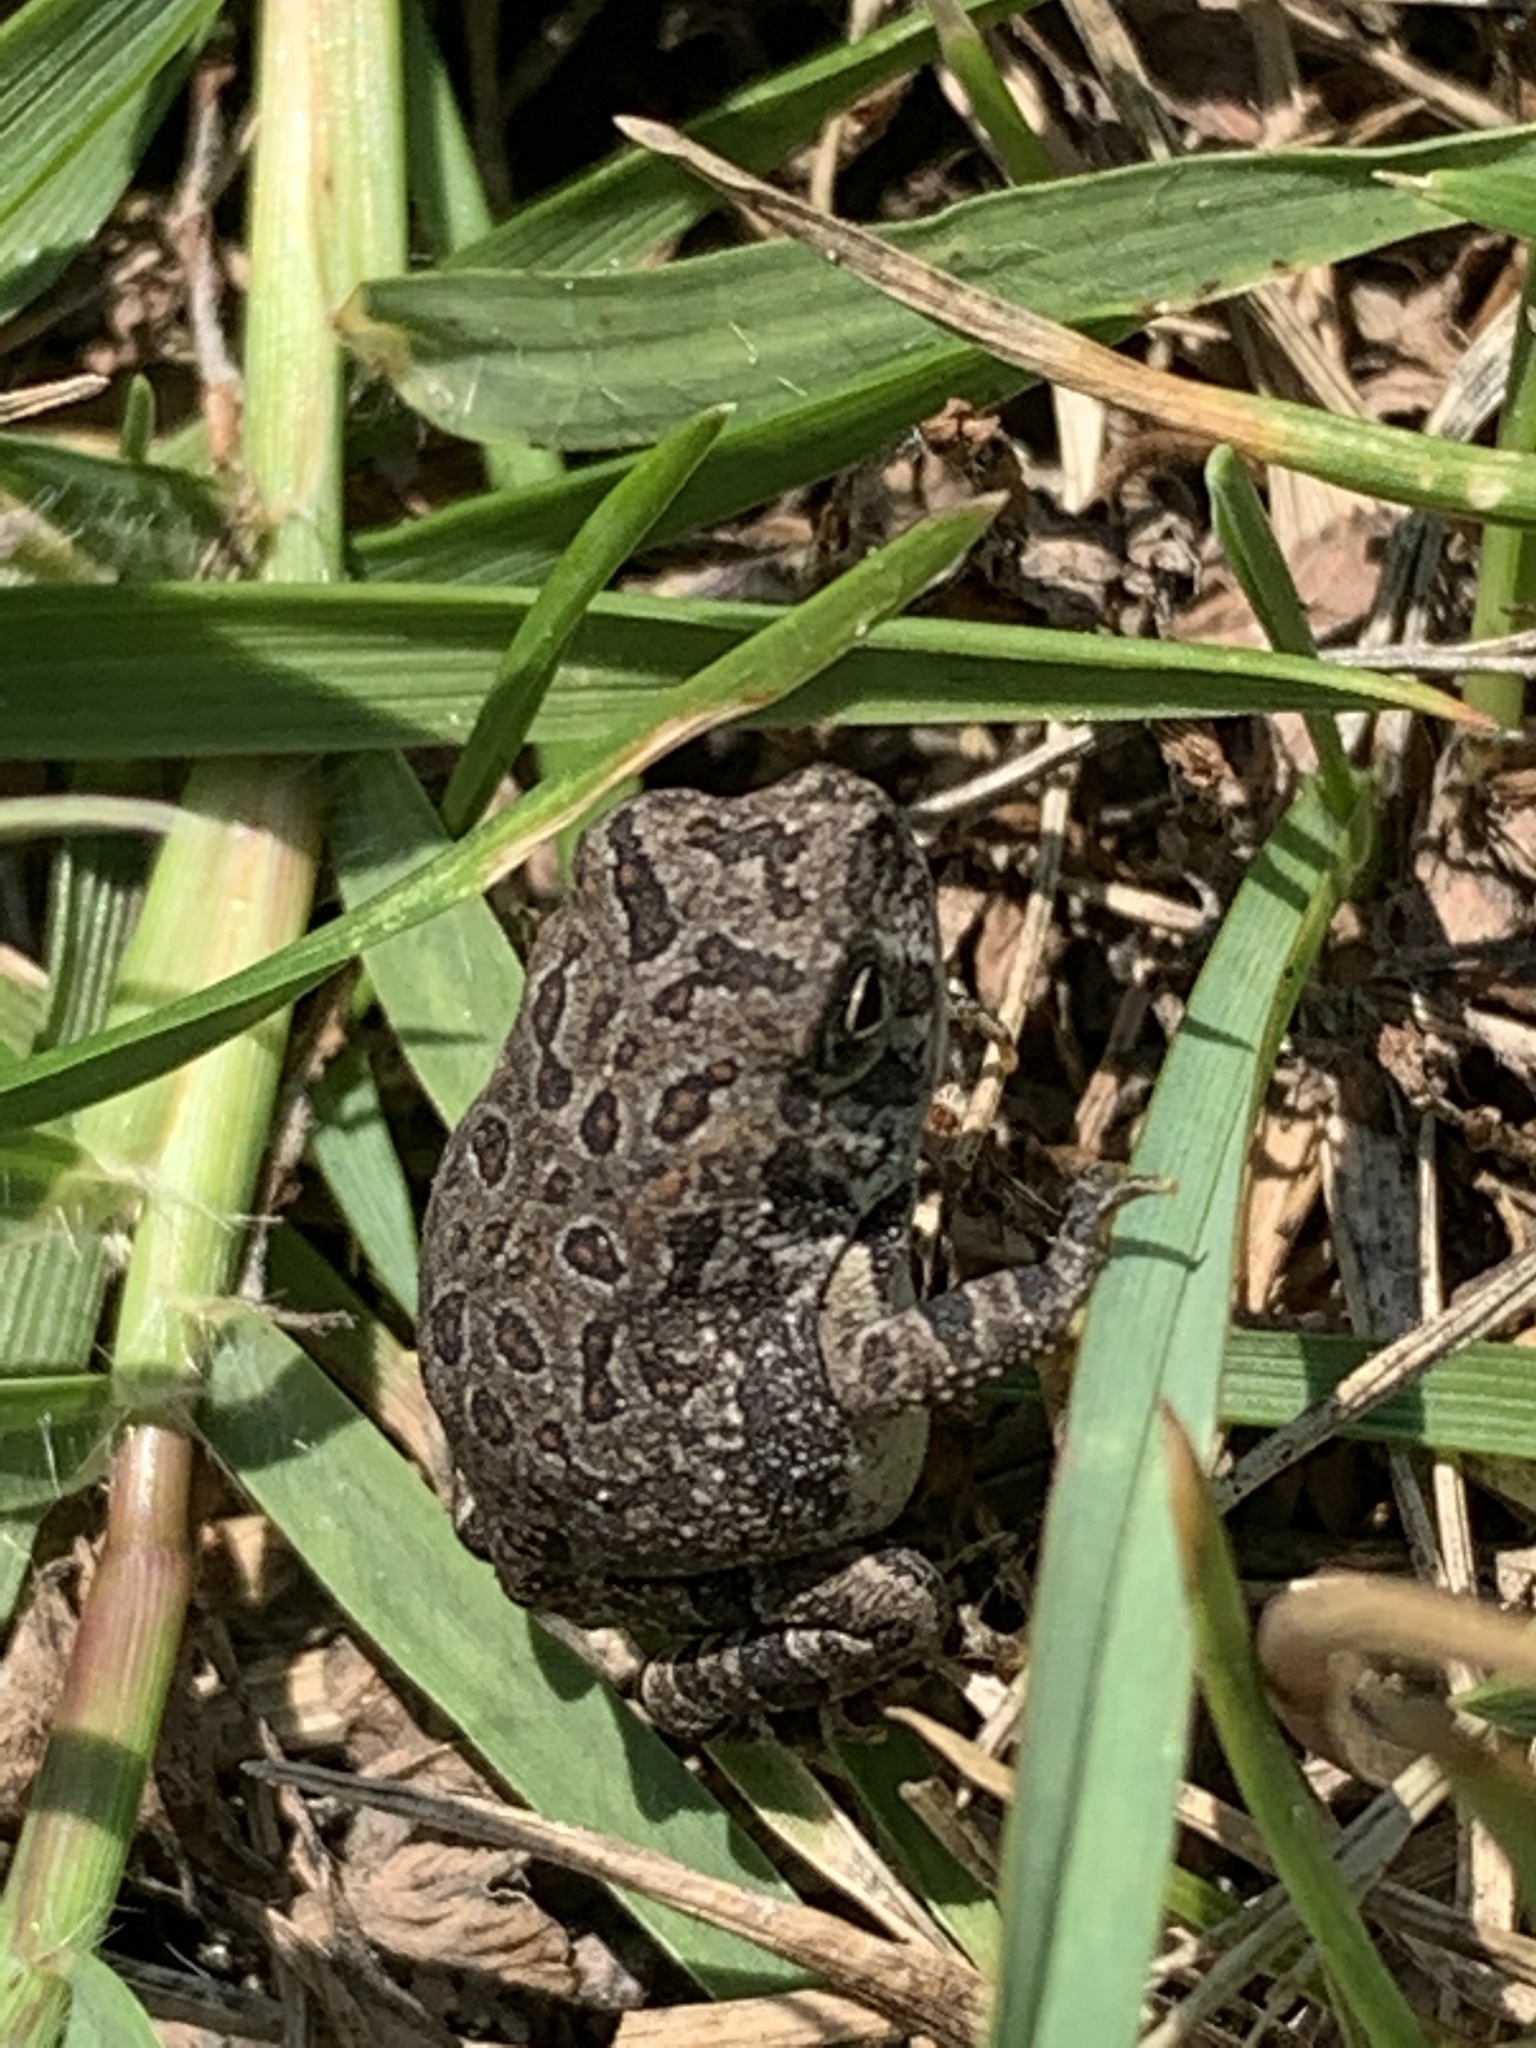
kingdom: Animalia
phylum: Chordata
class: Amphibia
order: Anura
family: Bufonidae
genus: Anaxyrus
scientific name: Anaxyrus fowleri
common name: Fowler's toad
